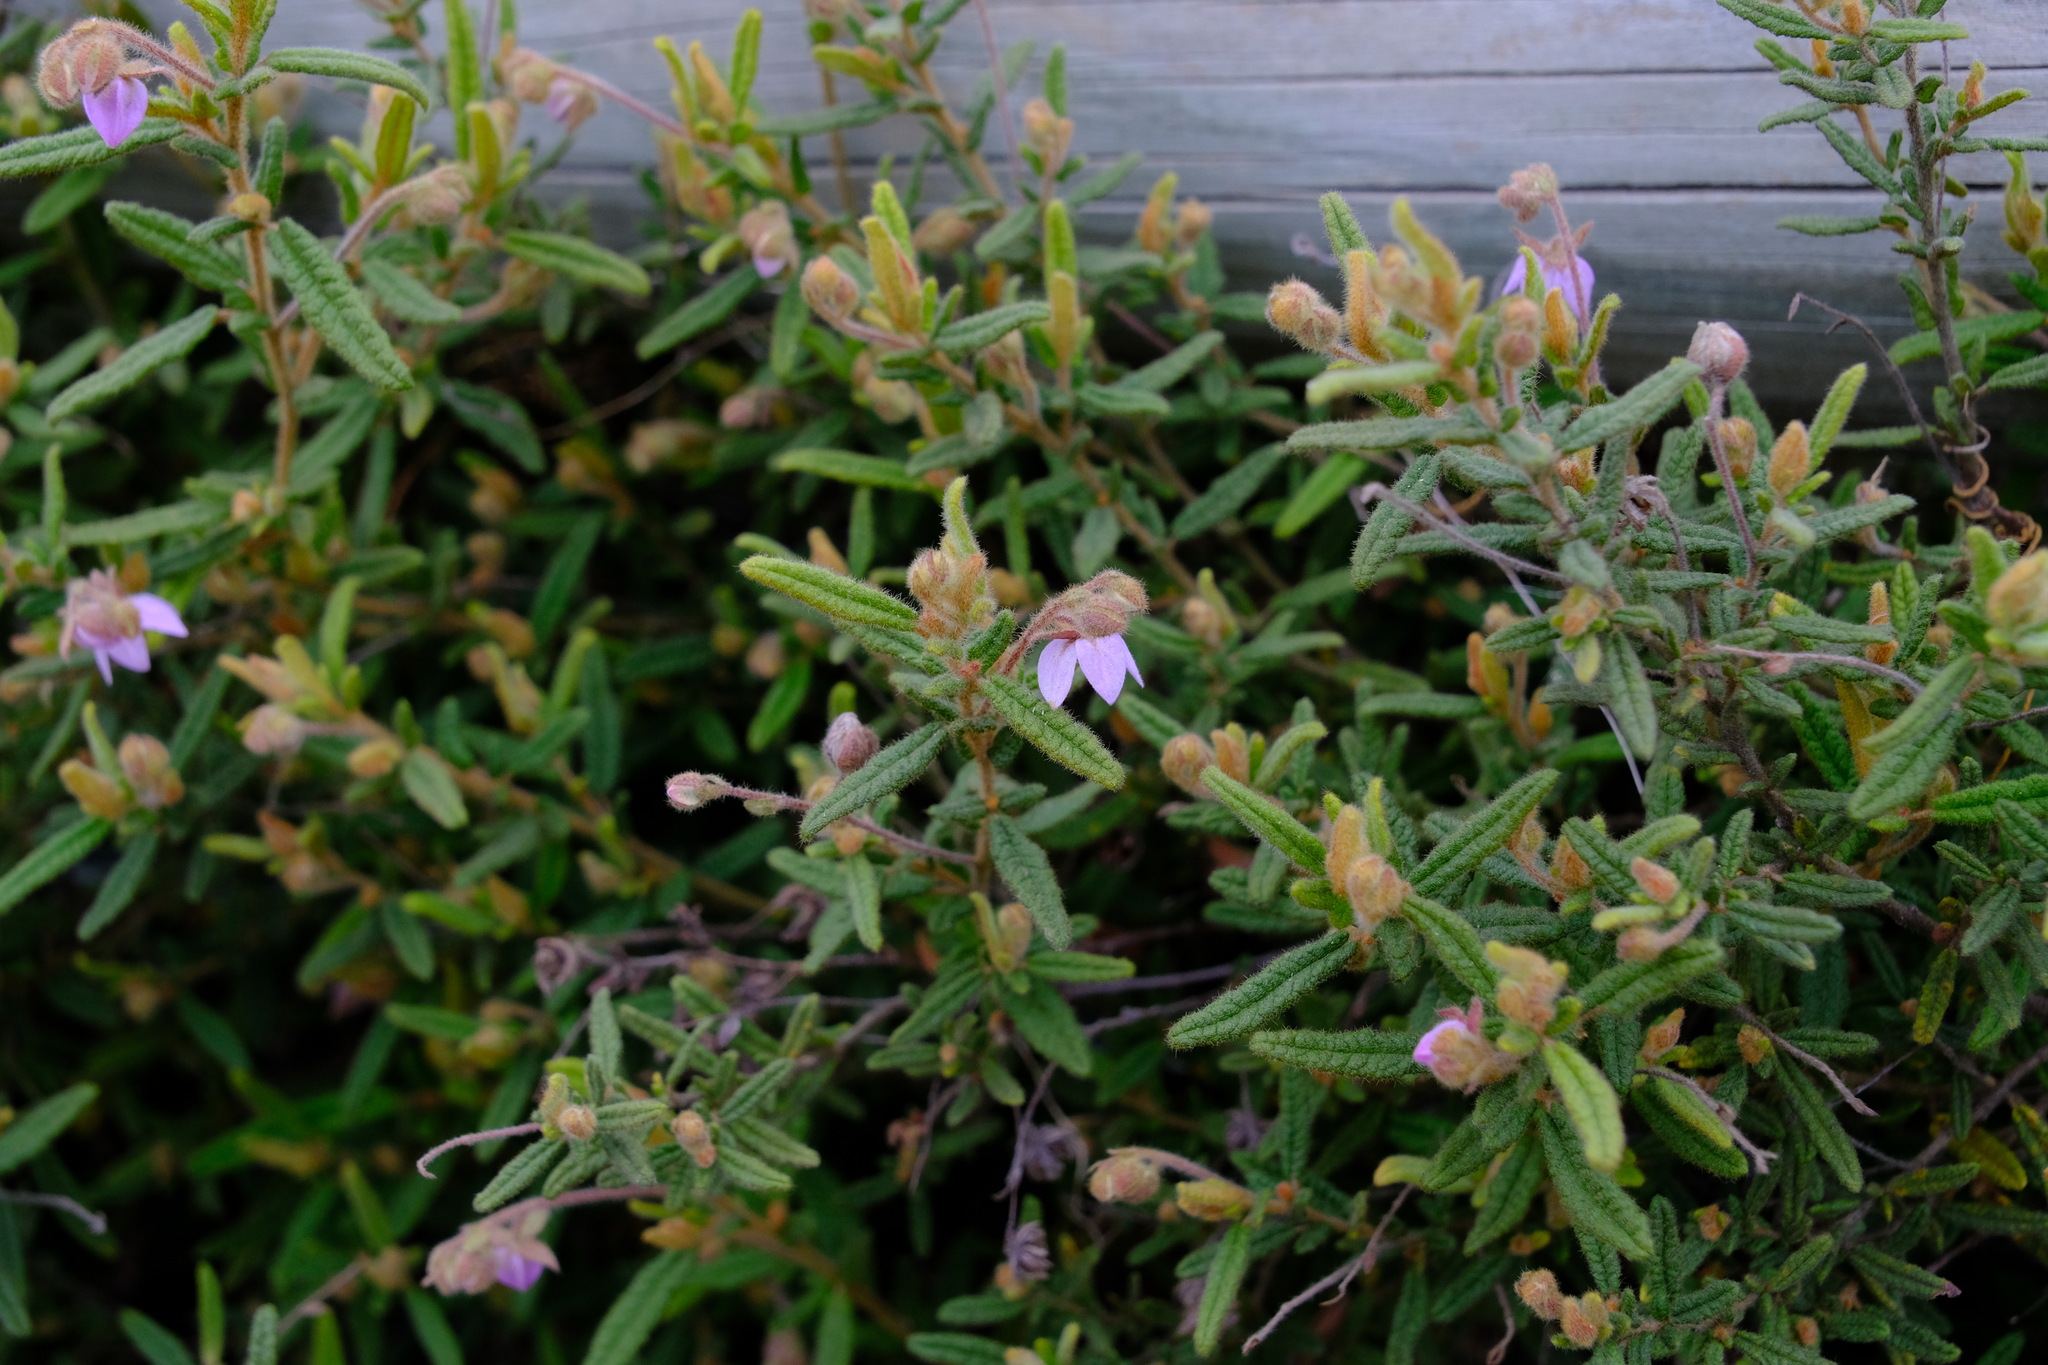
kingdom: Plantae
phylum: Tracheophyta
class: Magnoliopsida
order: Malvales
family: Malvaceae
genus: Thomasia
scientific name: Thomasia petalocalyx
